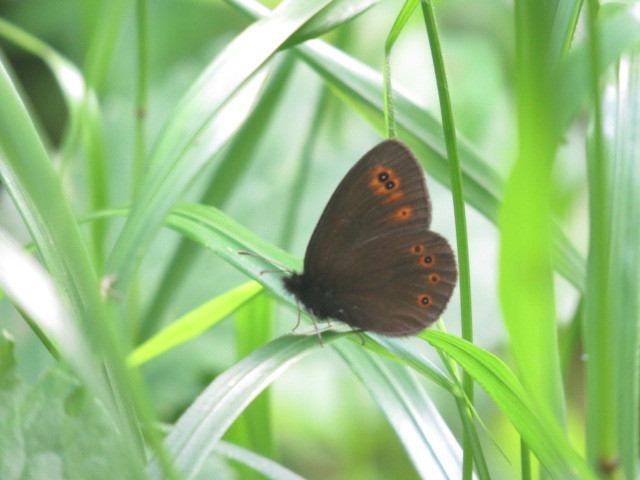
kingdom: Animalia
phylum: Arthropoda
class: Insecta
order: Lepidoptera
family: Nymphalidae
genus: Erebia
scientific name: Erebia medusa
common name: Woodland ringlet
